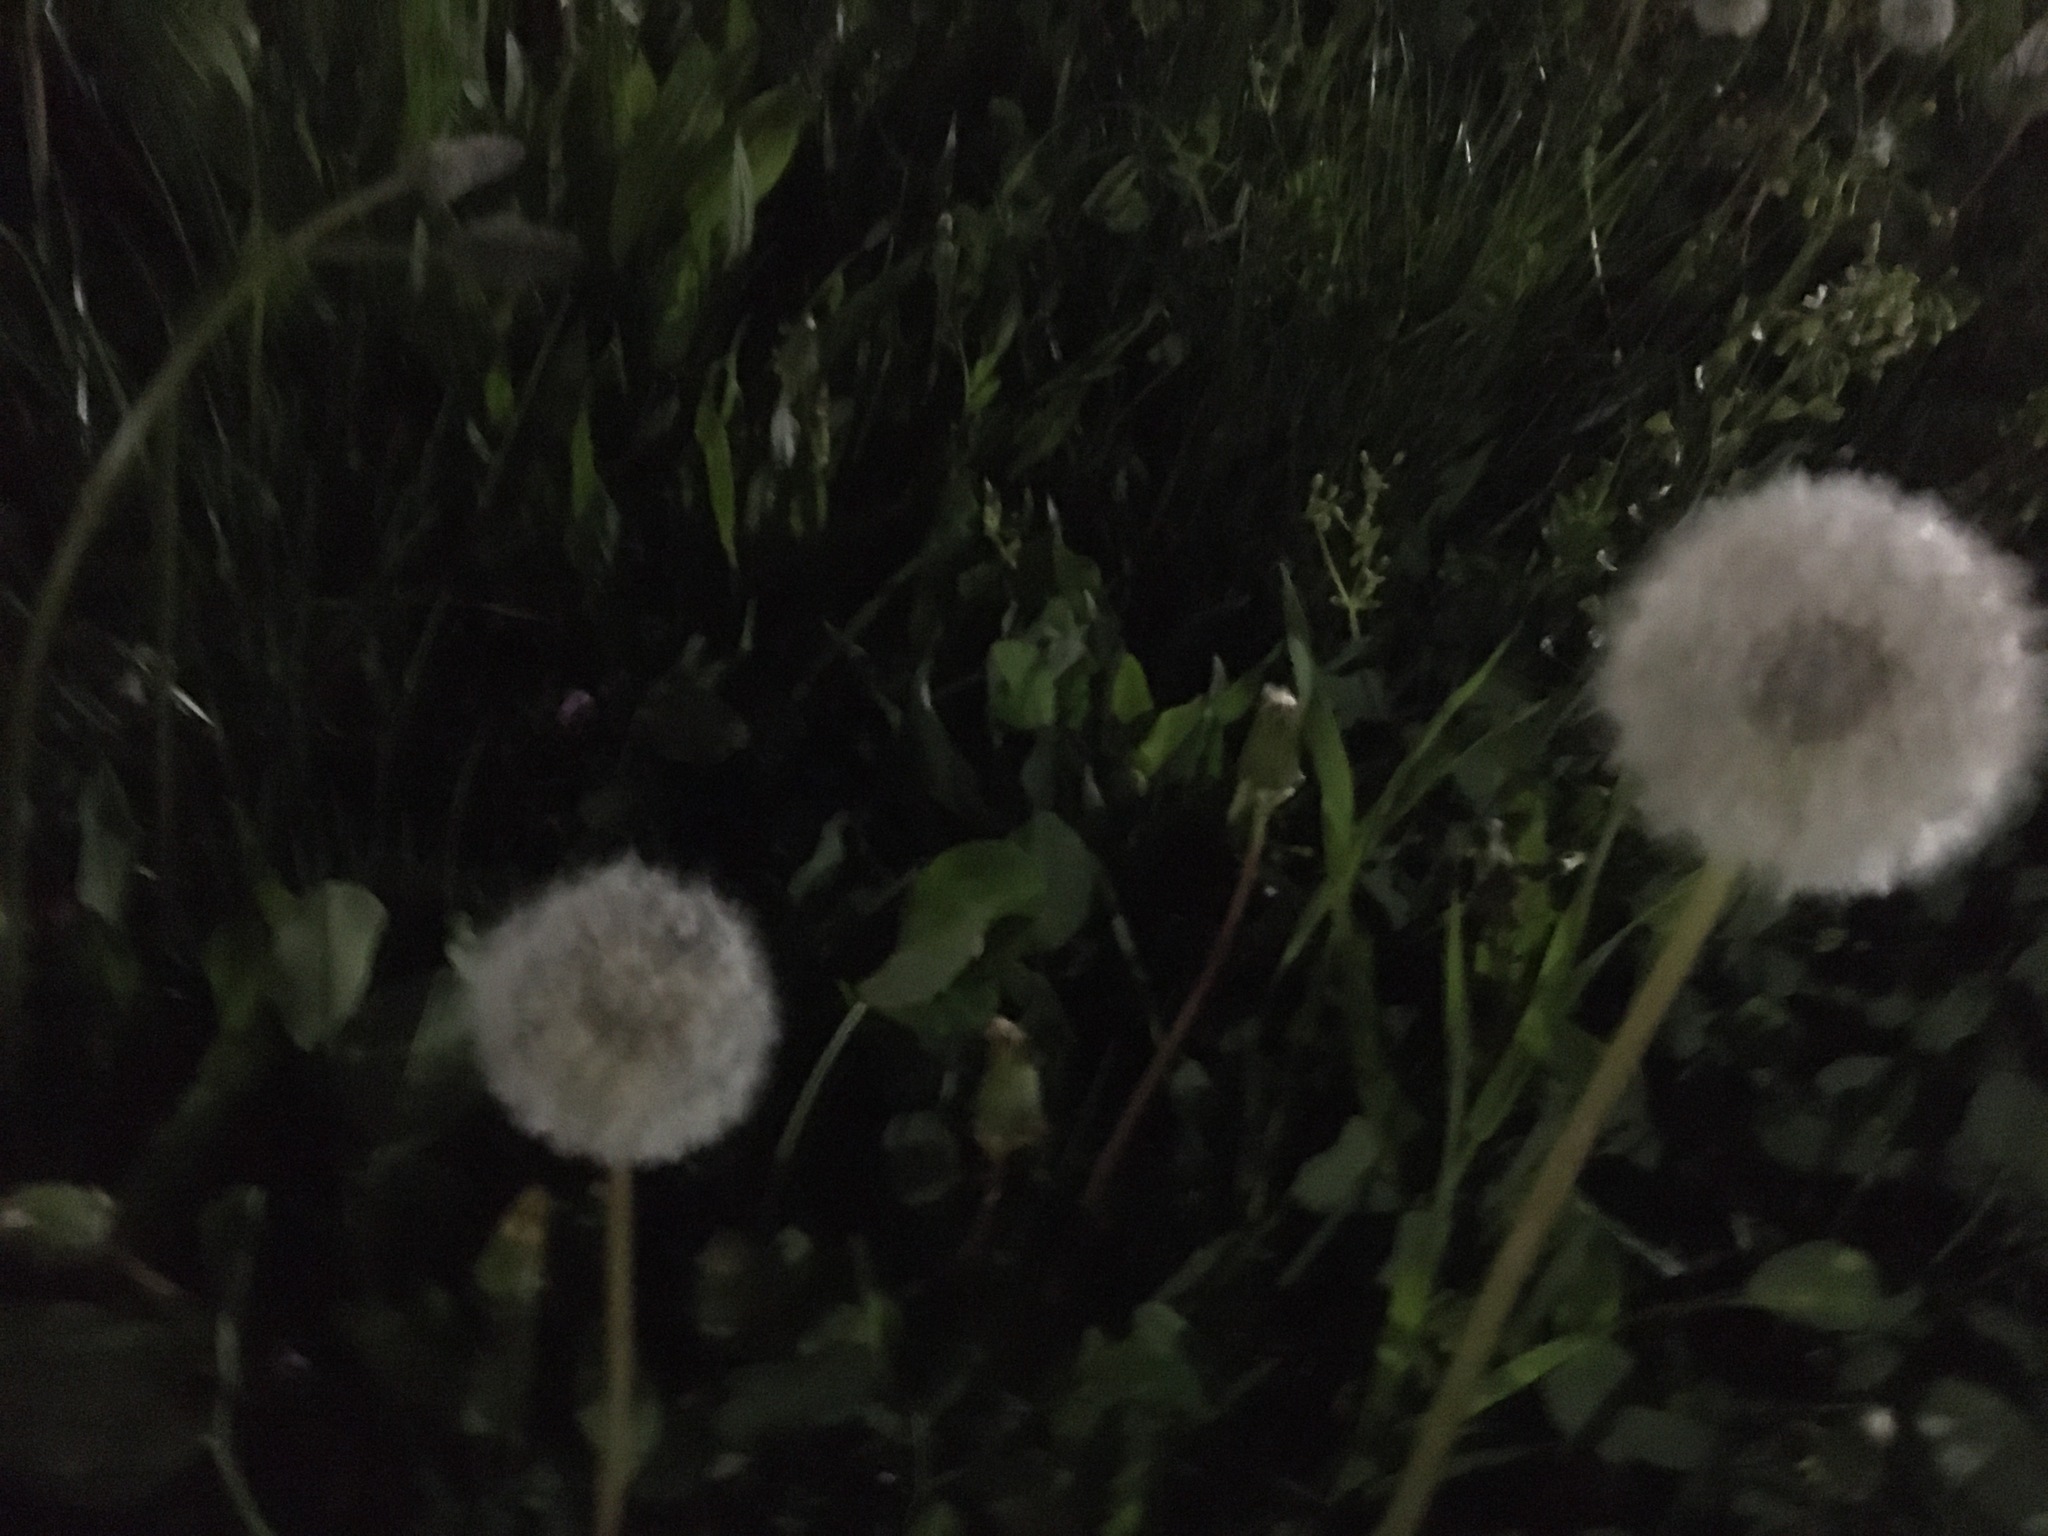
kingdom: Plantae
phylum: Tracheophyta
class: Magnoliopsida
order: Asterales
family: Asteraceae
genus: Taraxacum
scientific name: Taraxacum officinale
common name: Common dandelion
